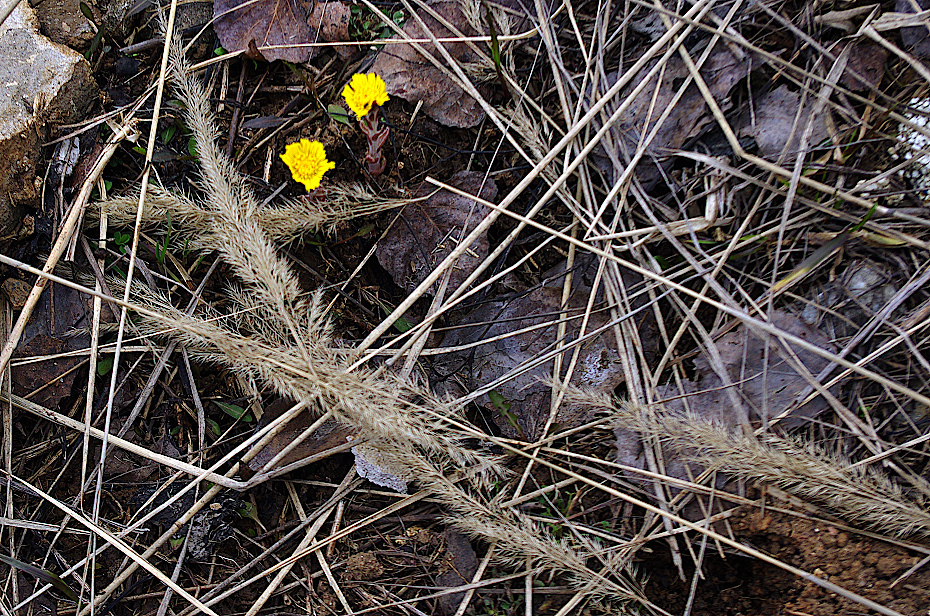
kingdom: Plantae
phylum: Tracheophyta
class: Liliopsida
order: Poales
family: Poaceae
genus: Calamagrostis
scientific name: Calamagrostis epigejos
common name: Wood small-reed
